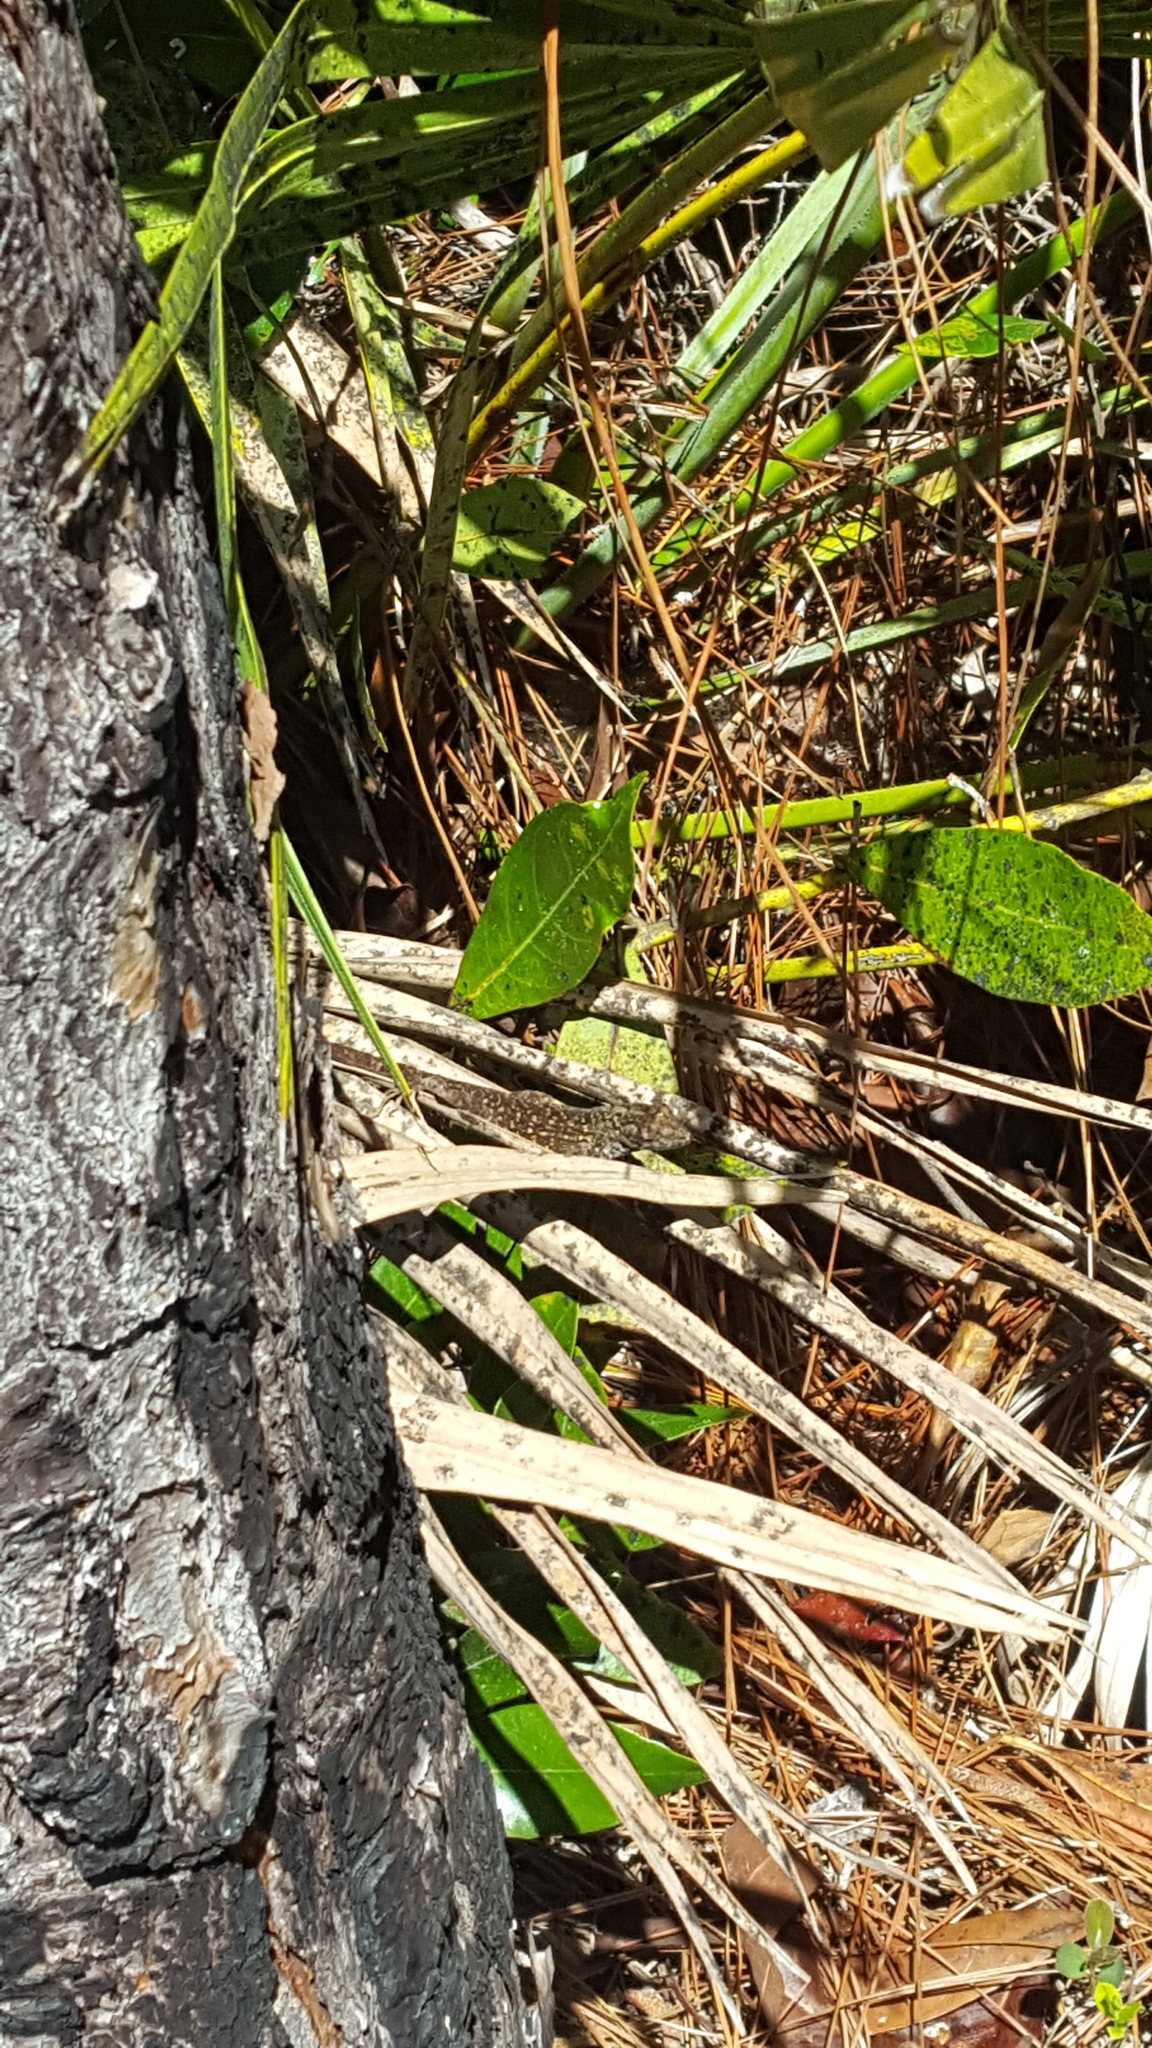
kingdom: Animalia
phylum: Chordata
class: Squamata
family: Dactyloidae
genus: Anolis
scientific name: Anolis sagrei
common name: Brown anole
